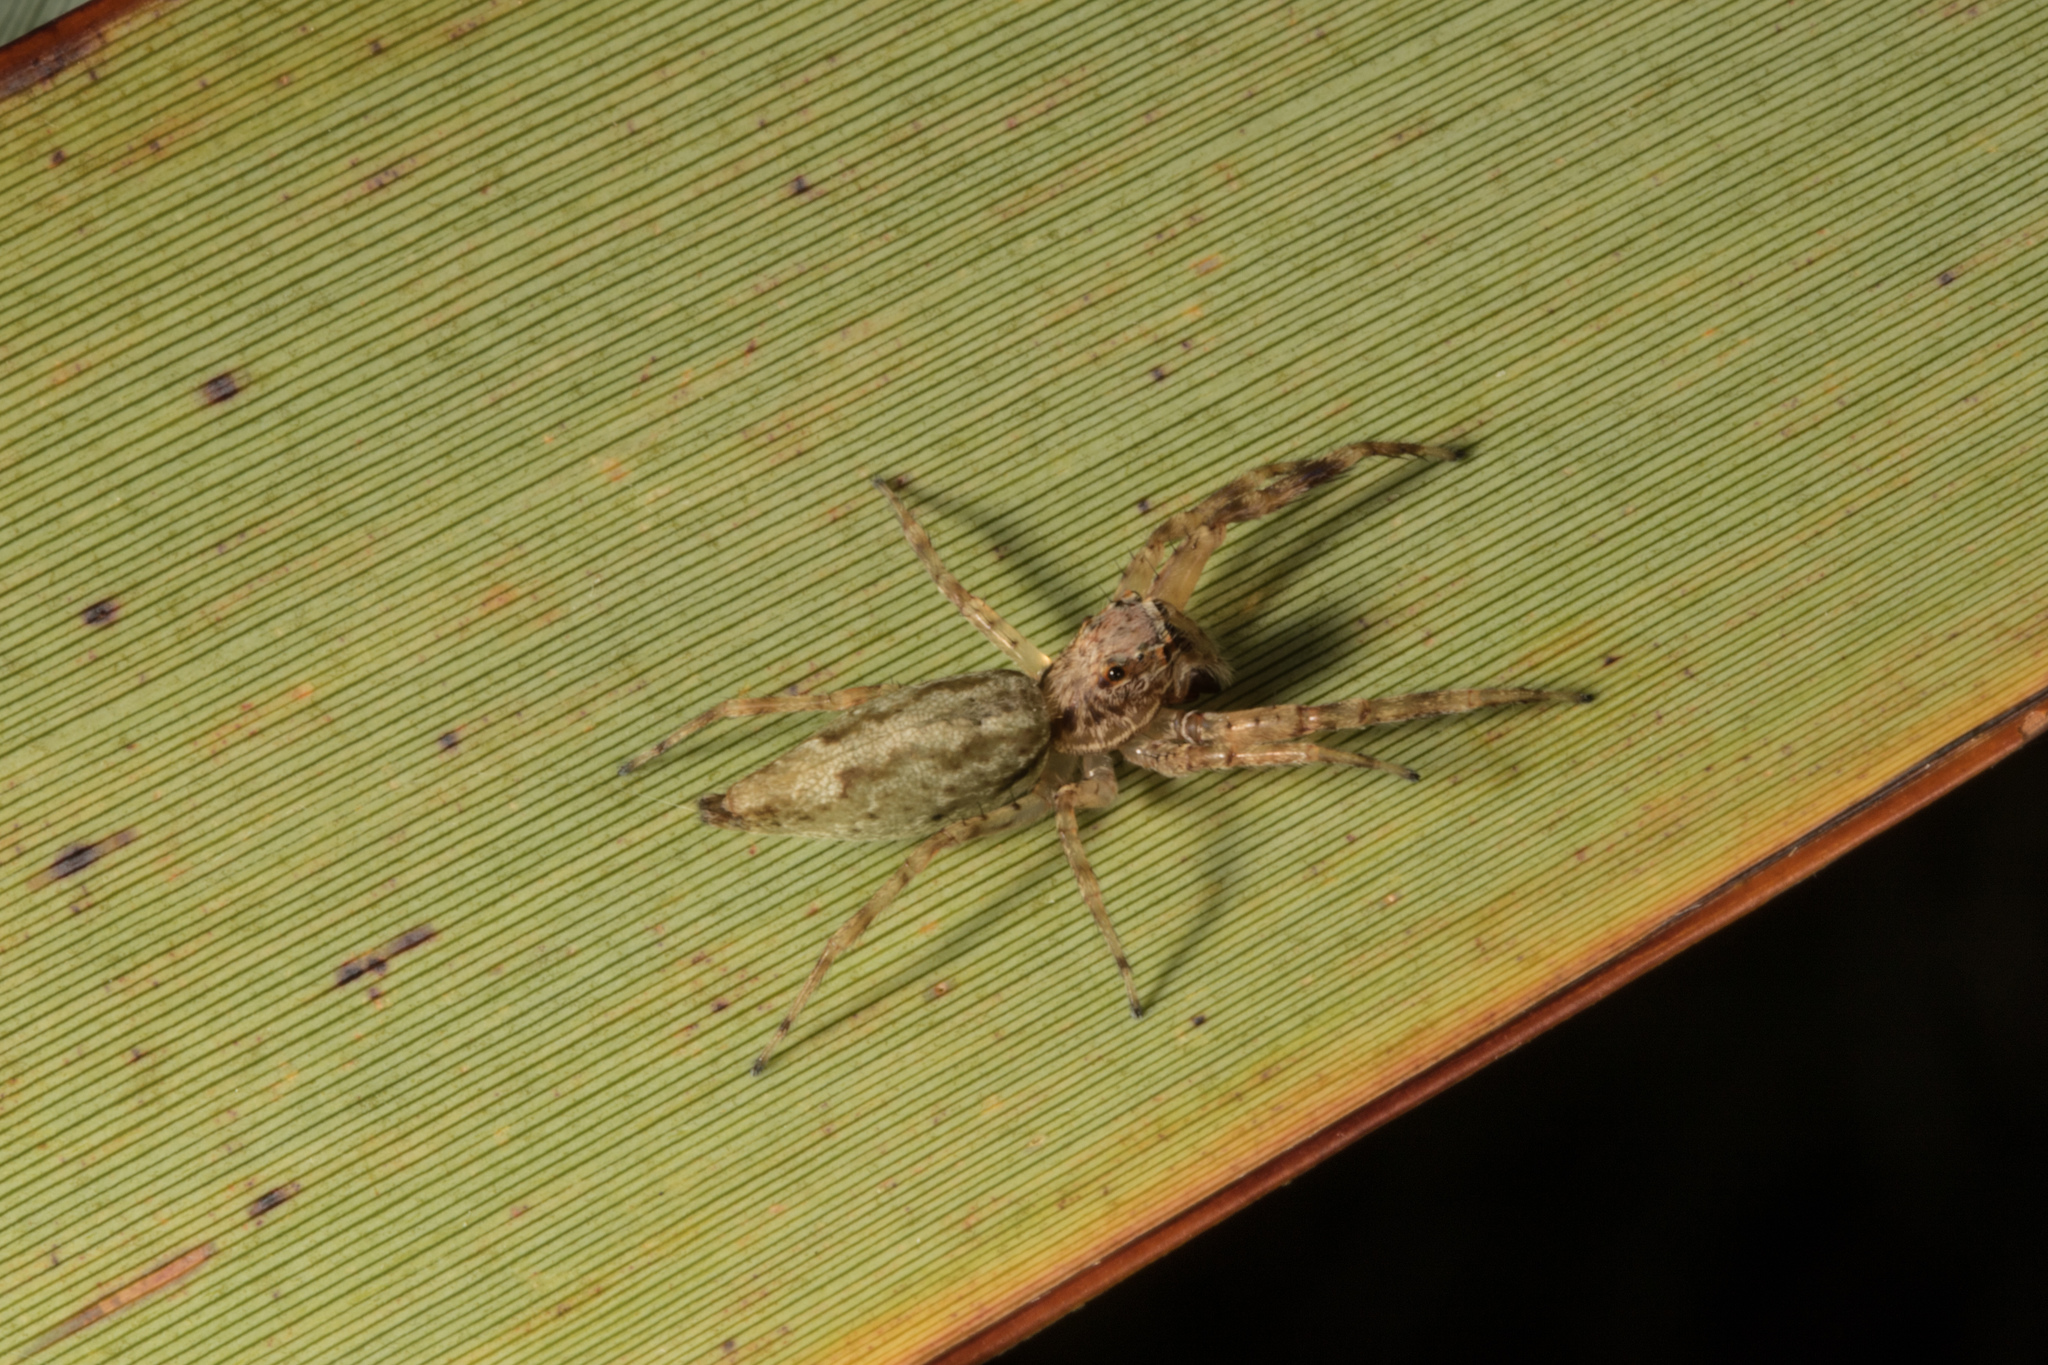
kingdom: Animalia
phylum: Arthropoda
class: Arachnida
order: Araneae
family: Salticidae
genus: Helpis
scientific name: Helpis minitabunda
